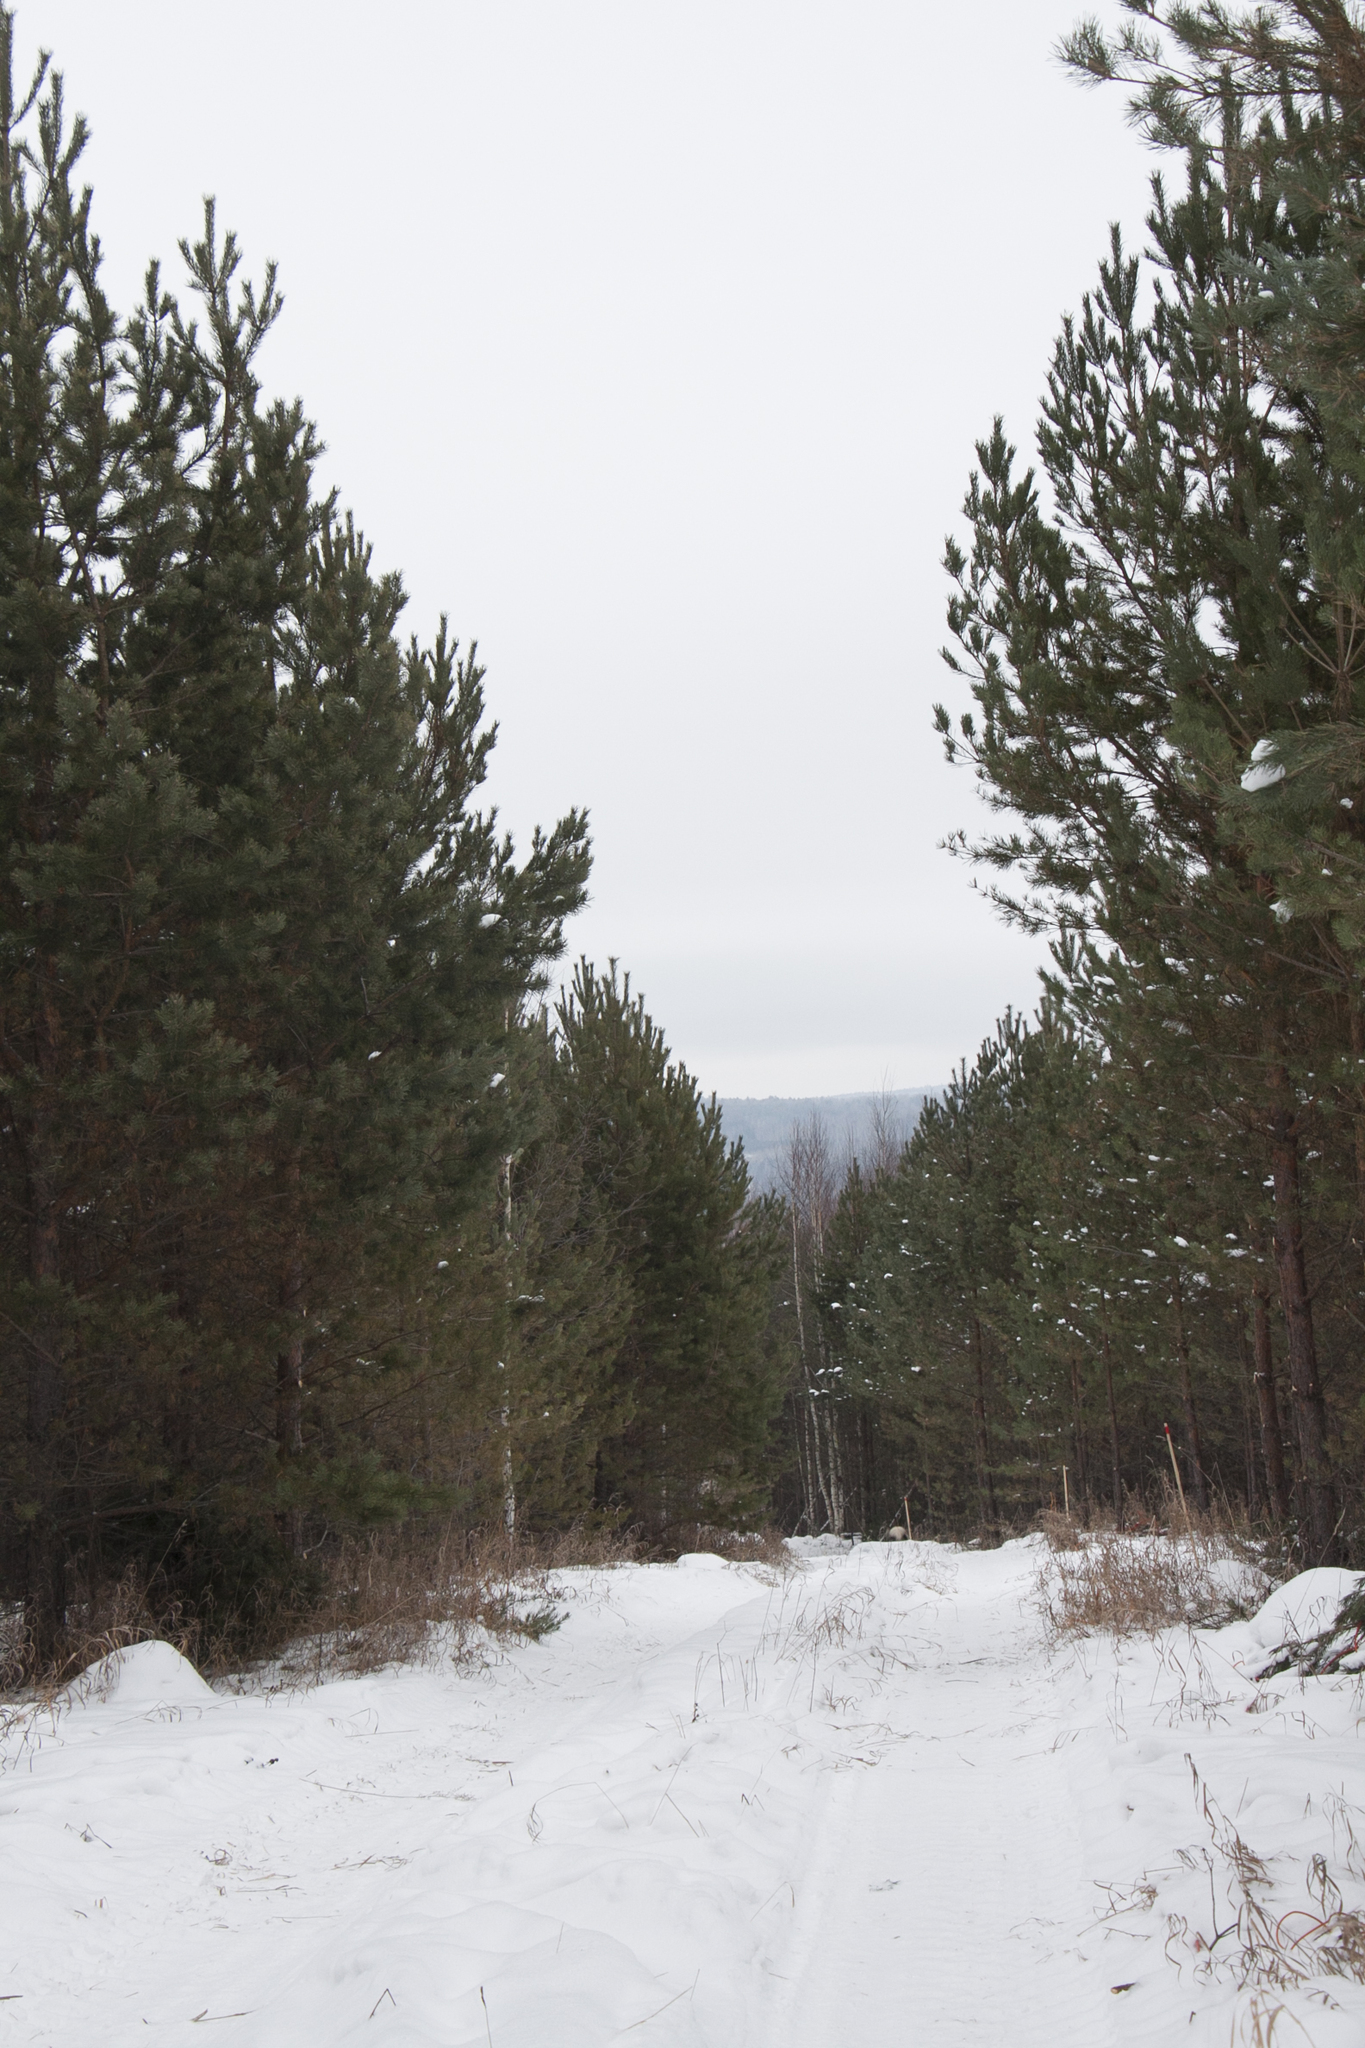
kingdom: Plantae
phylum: Tracheophyta
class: Pinopsida
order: Pinales
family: Pinaceae
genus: Pinus
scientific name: Pinus sylvestris
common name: Scots pine
